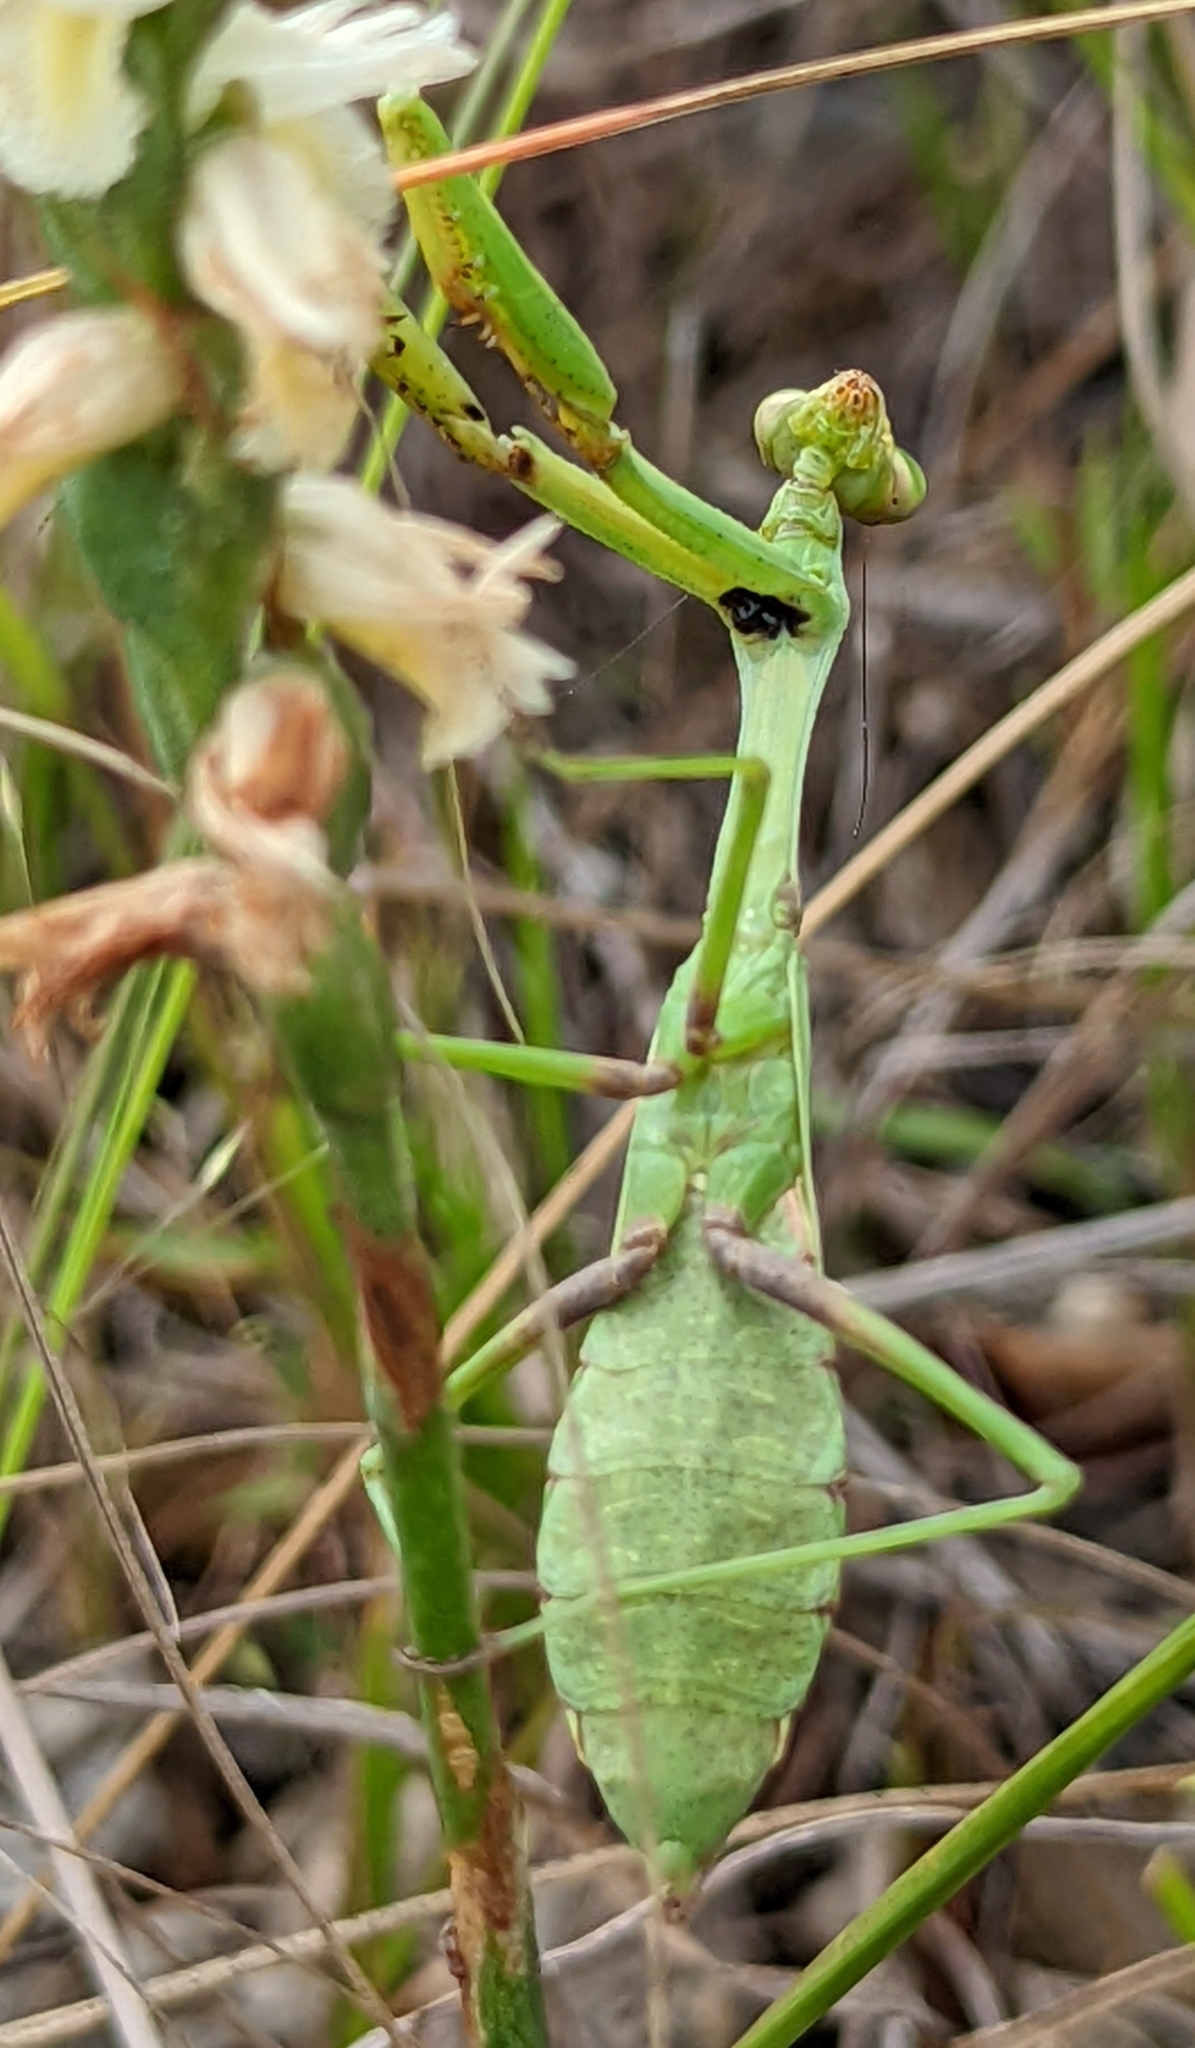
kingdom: Animalia
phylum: Arthropoda
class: Insecta
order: Mantodea
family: Mantidae
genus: Stagmomantis
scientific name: Stagmomantis carolina
